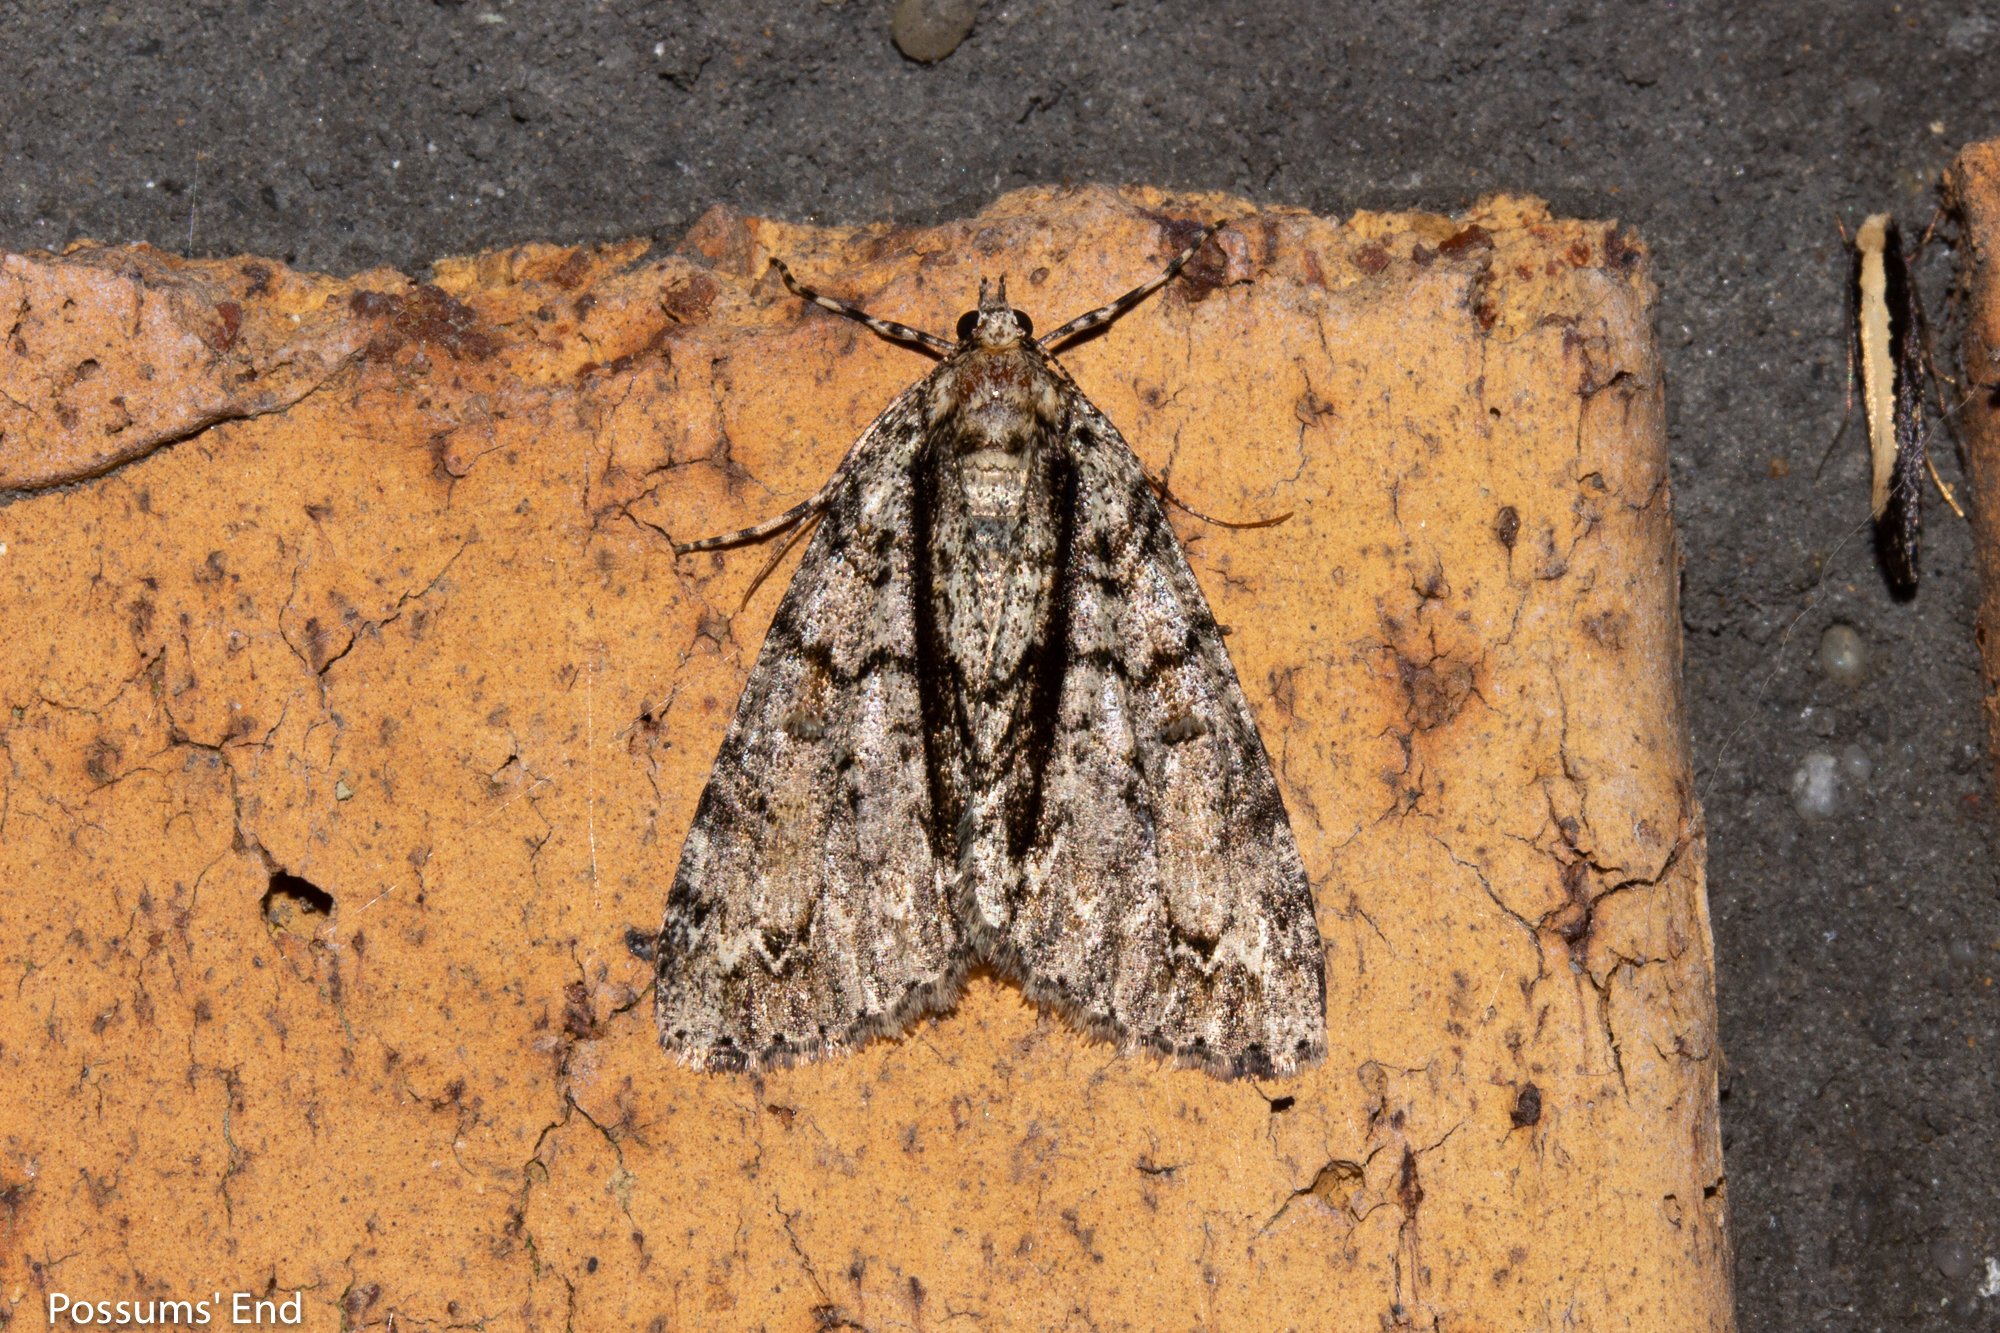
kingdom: Animalia
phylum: Arthropoda
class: Insecta
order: Lepidoptera
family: Geometridae
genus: Pseudocoremia
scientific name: Pseudocoremia suavis
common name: Common forest looper
